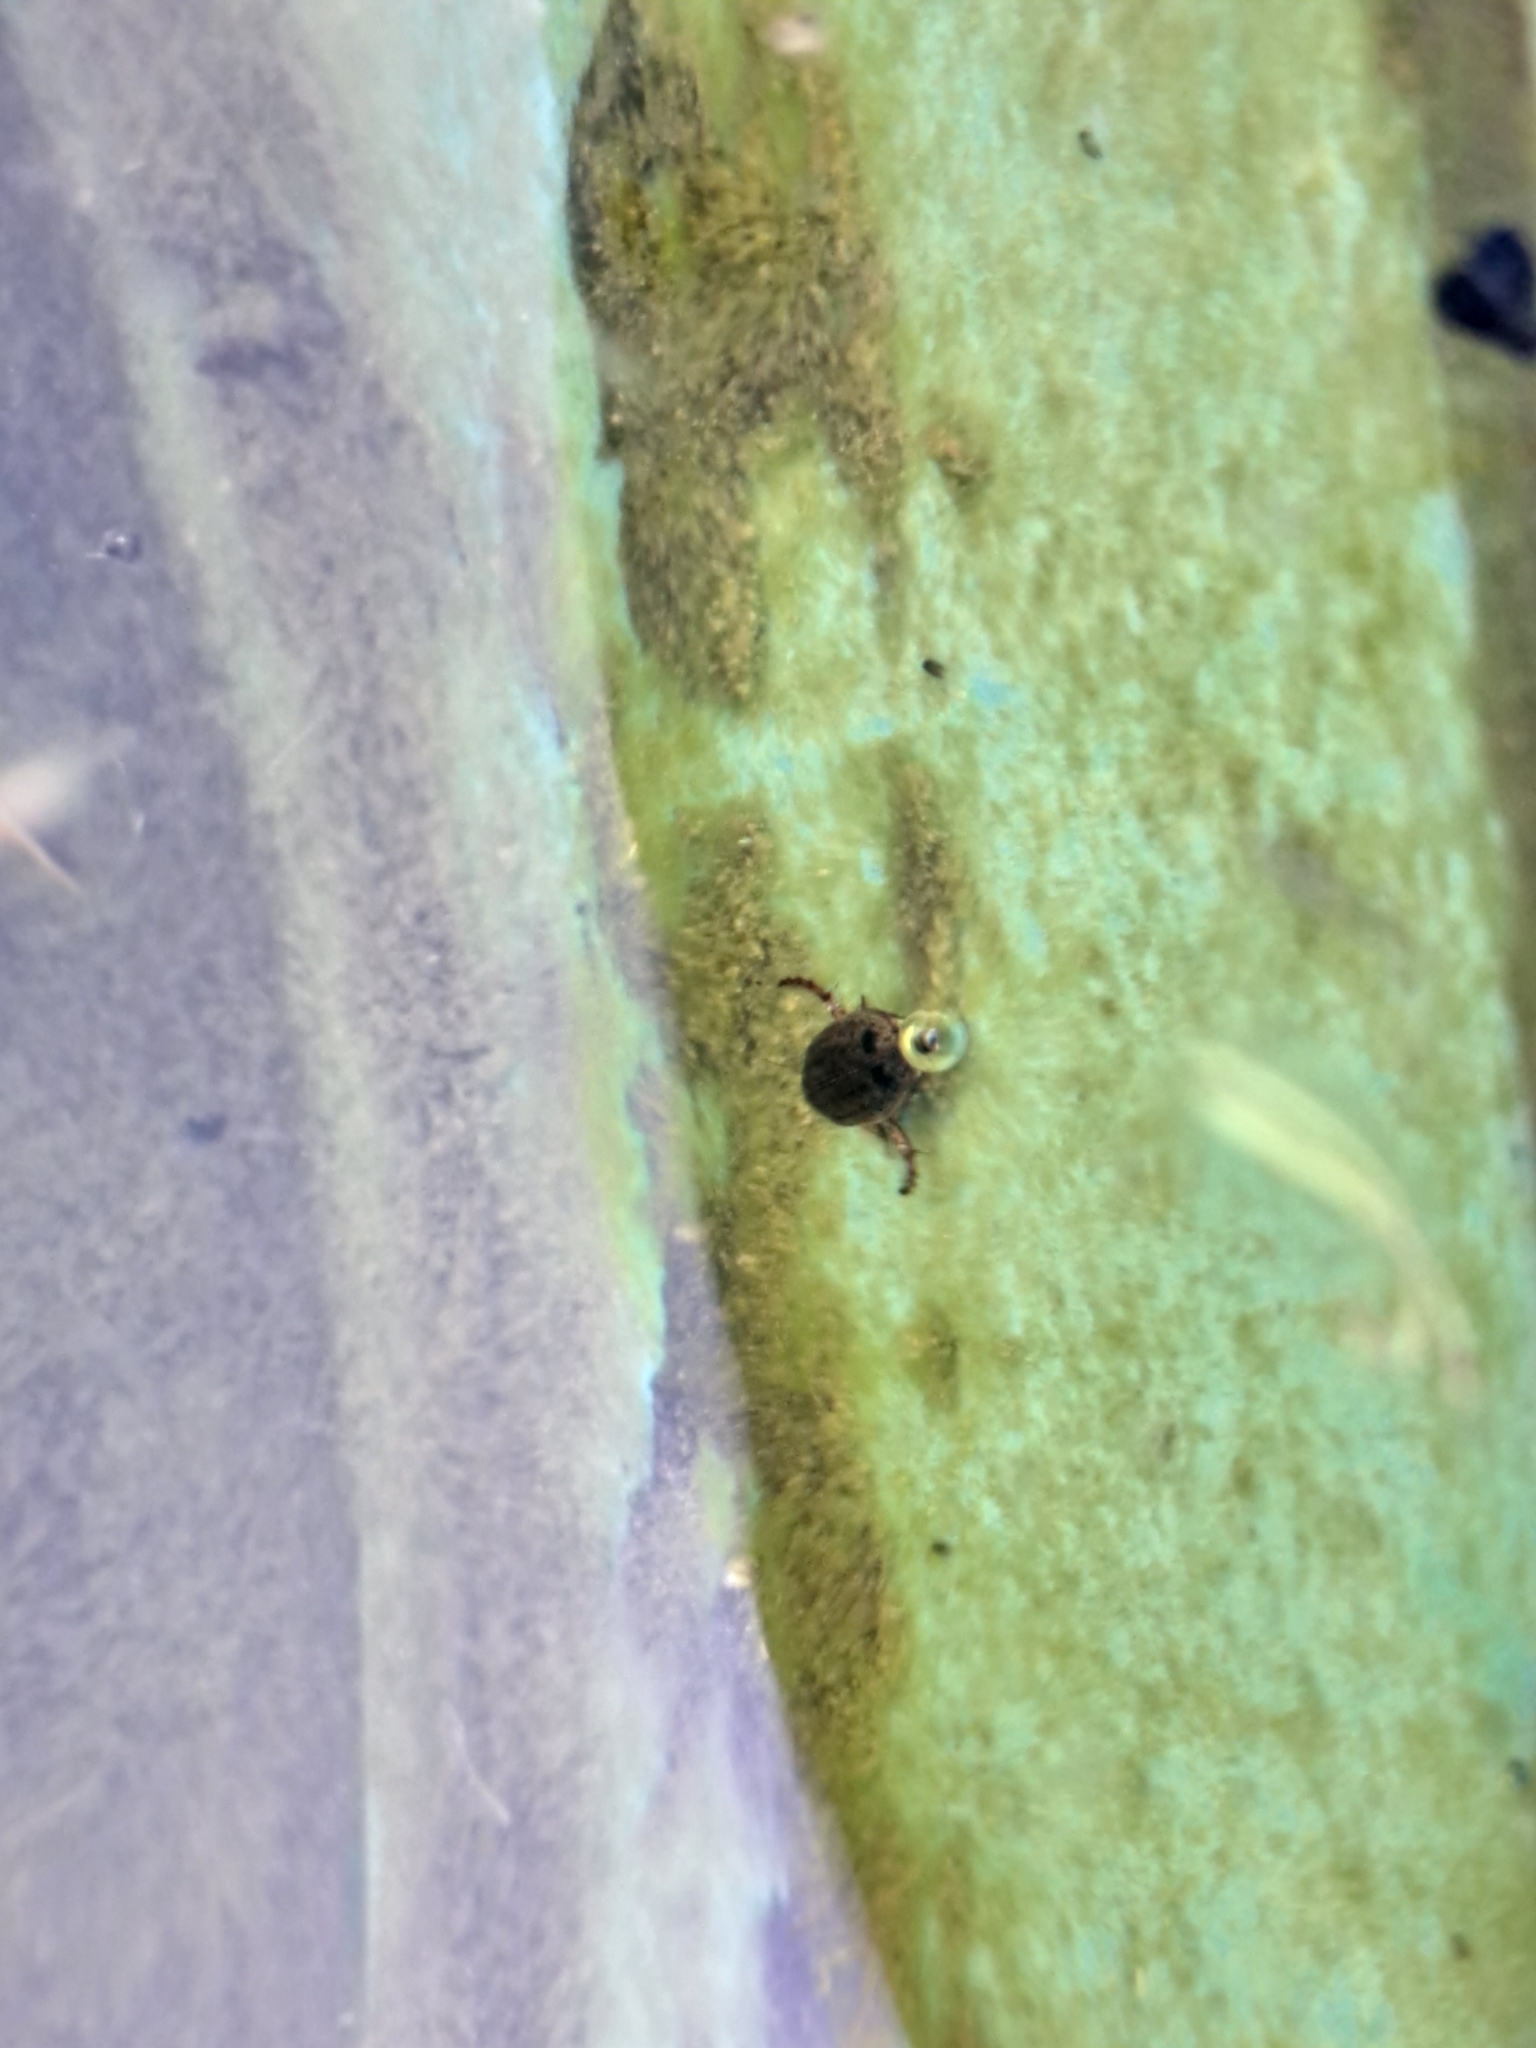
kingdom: Animalia
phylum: Arthropoda
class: Insecta
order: Coleoptera
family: Dytiscidae
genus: Rhantus
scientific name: Rhantus
